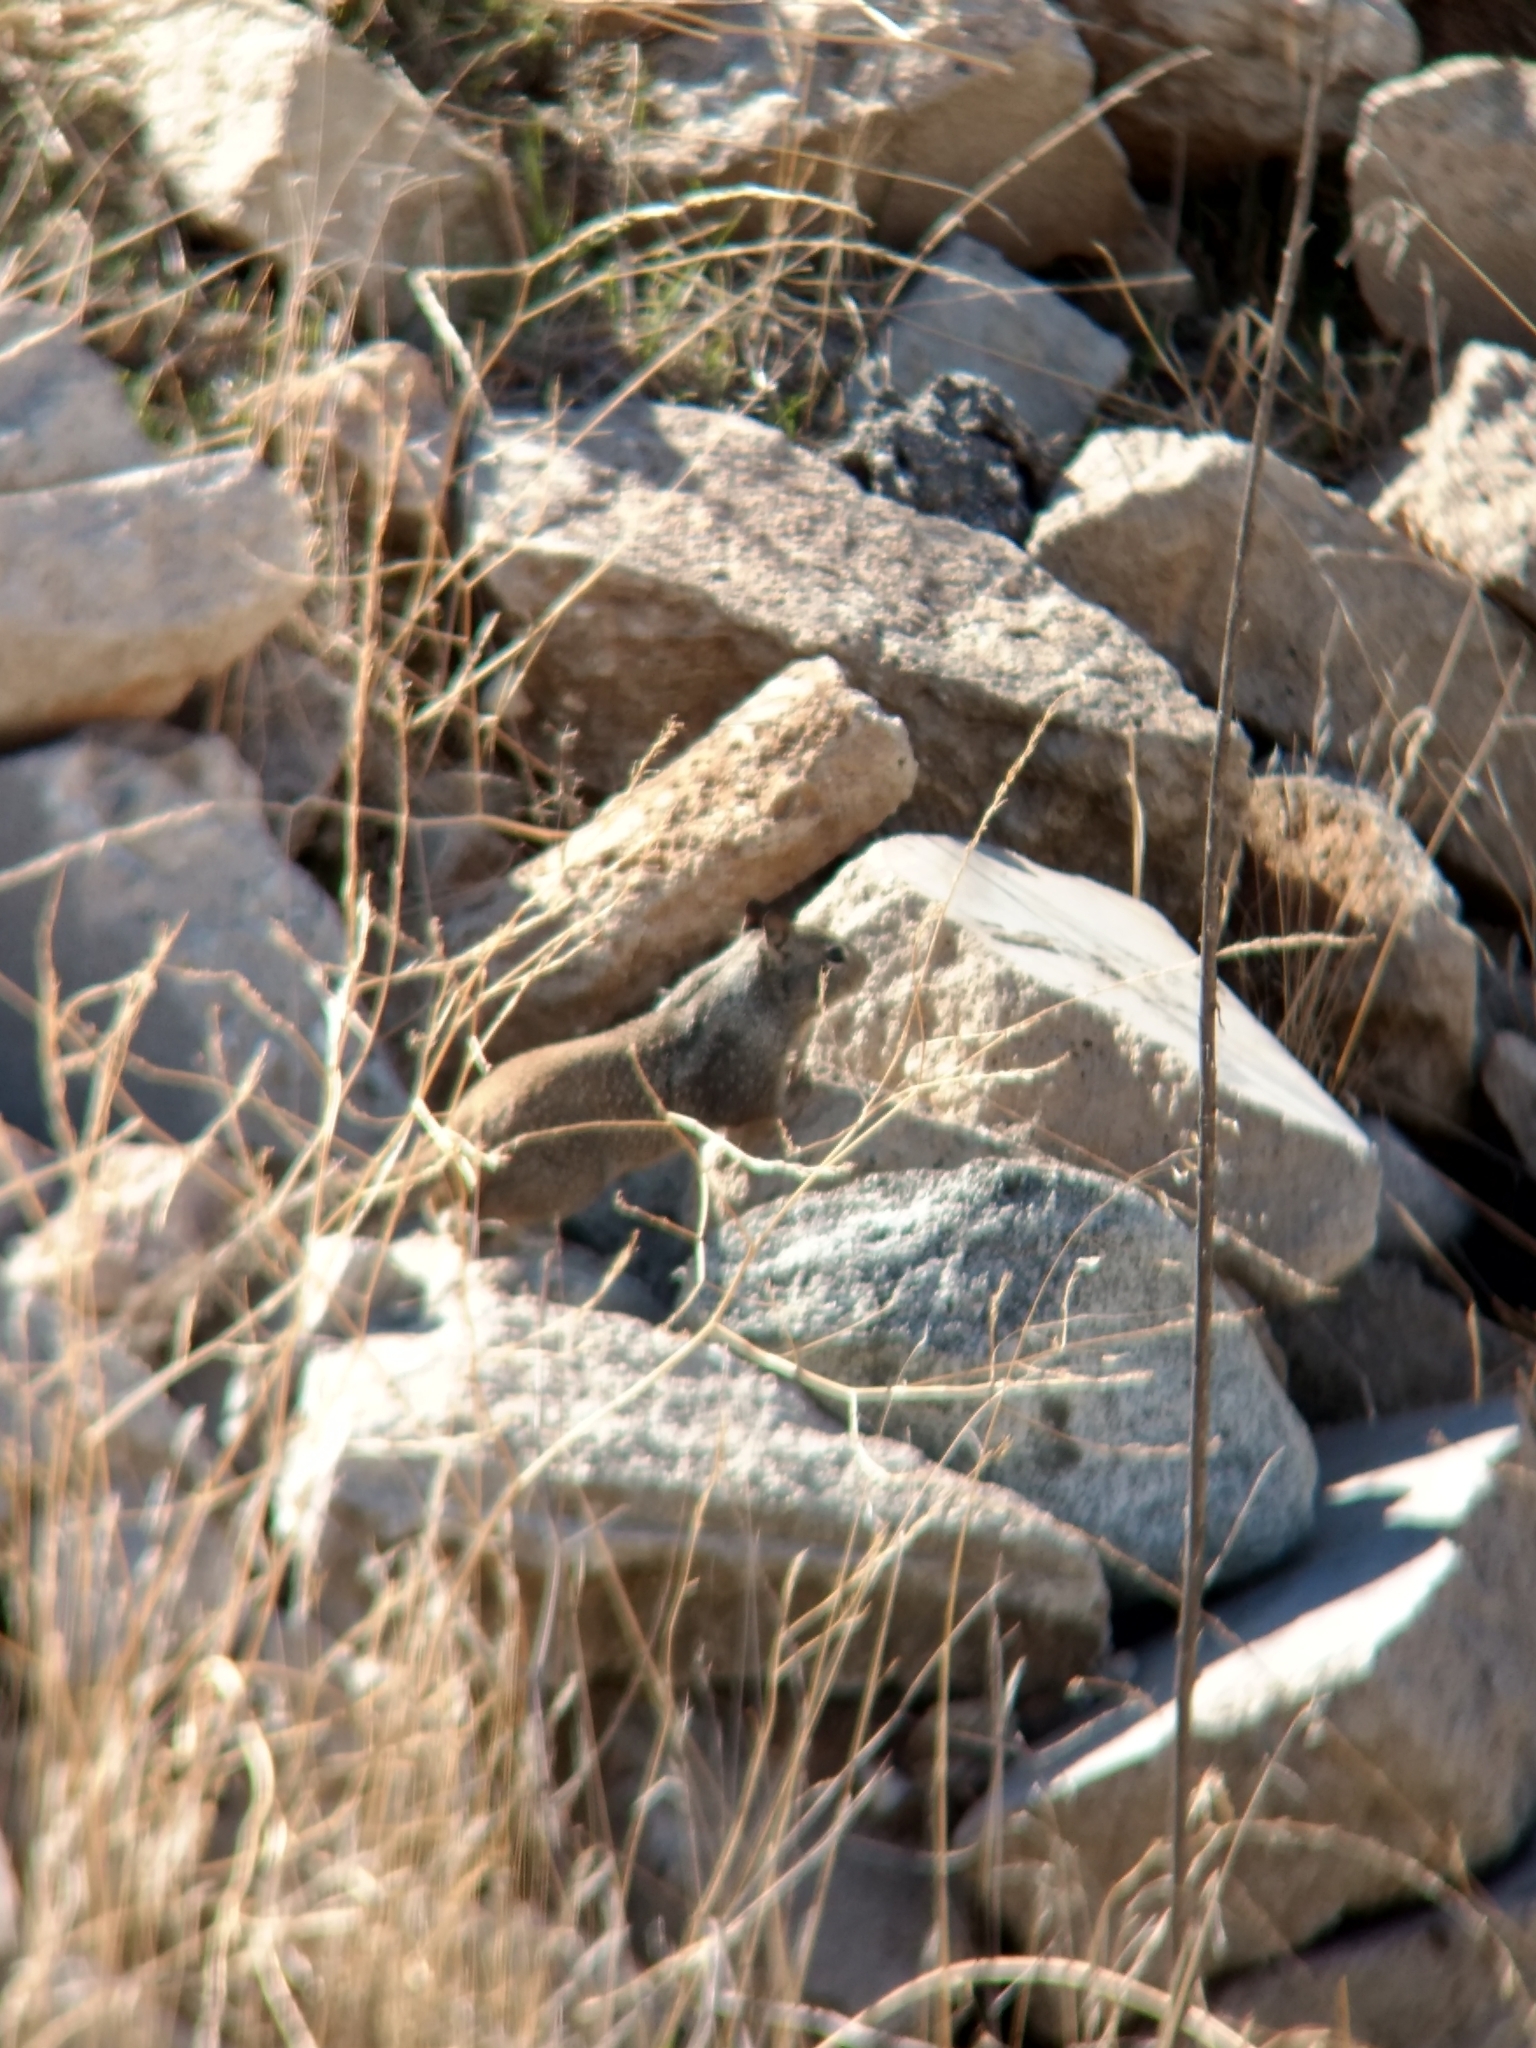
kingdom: Animalia
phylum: Chordata
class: Mammalia
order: Rodentia
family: Sciuridae
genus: Otospermophilus
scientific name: Otospermophilus beecheyi
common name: California ground squirrel
